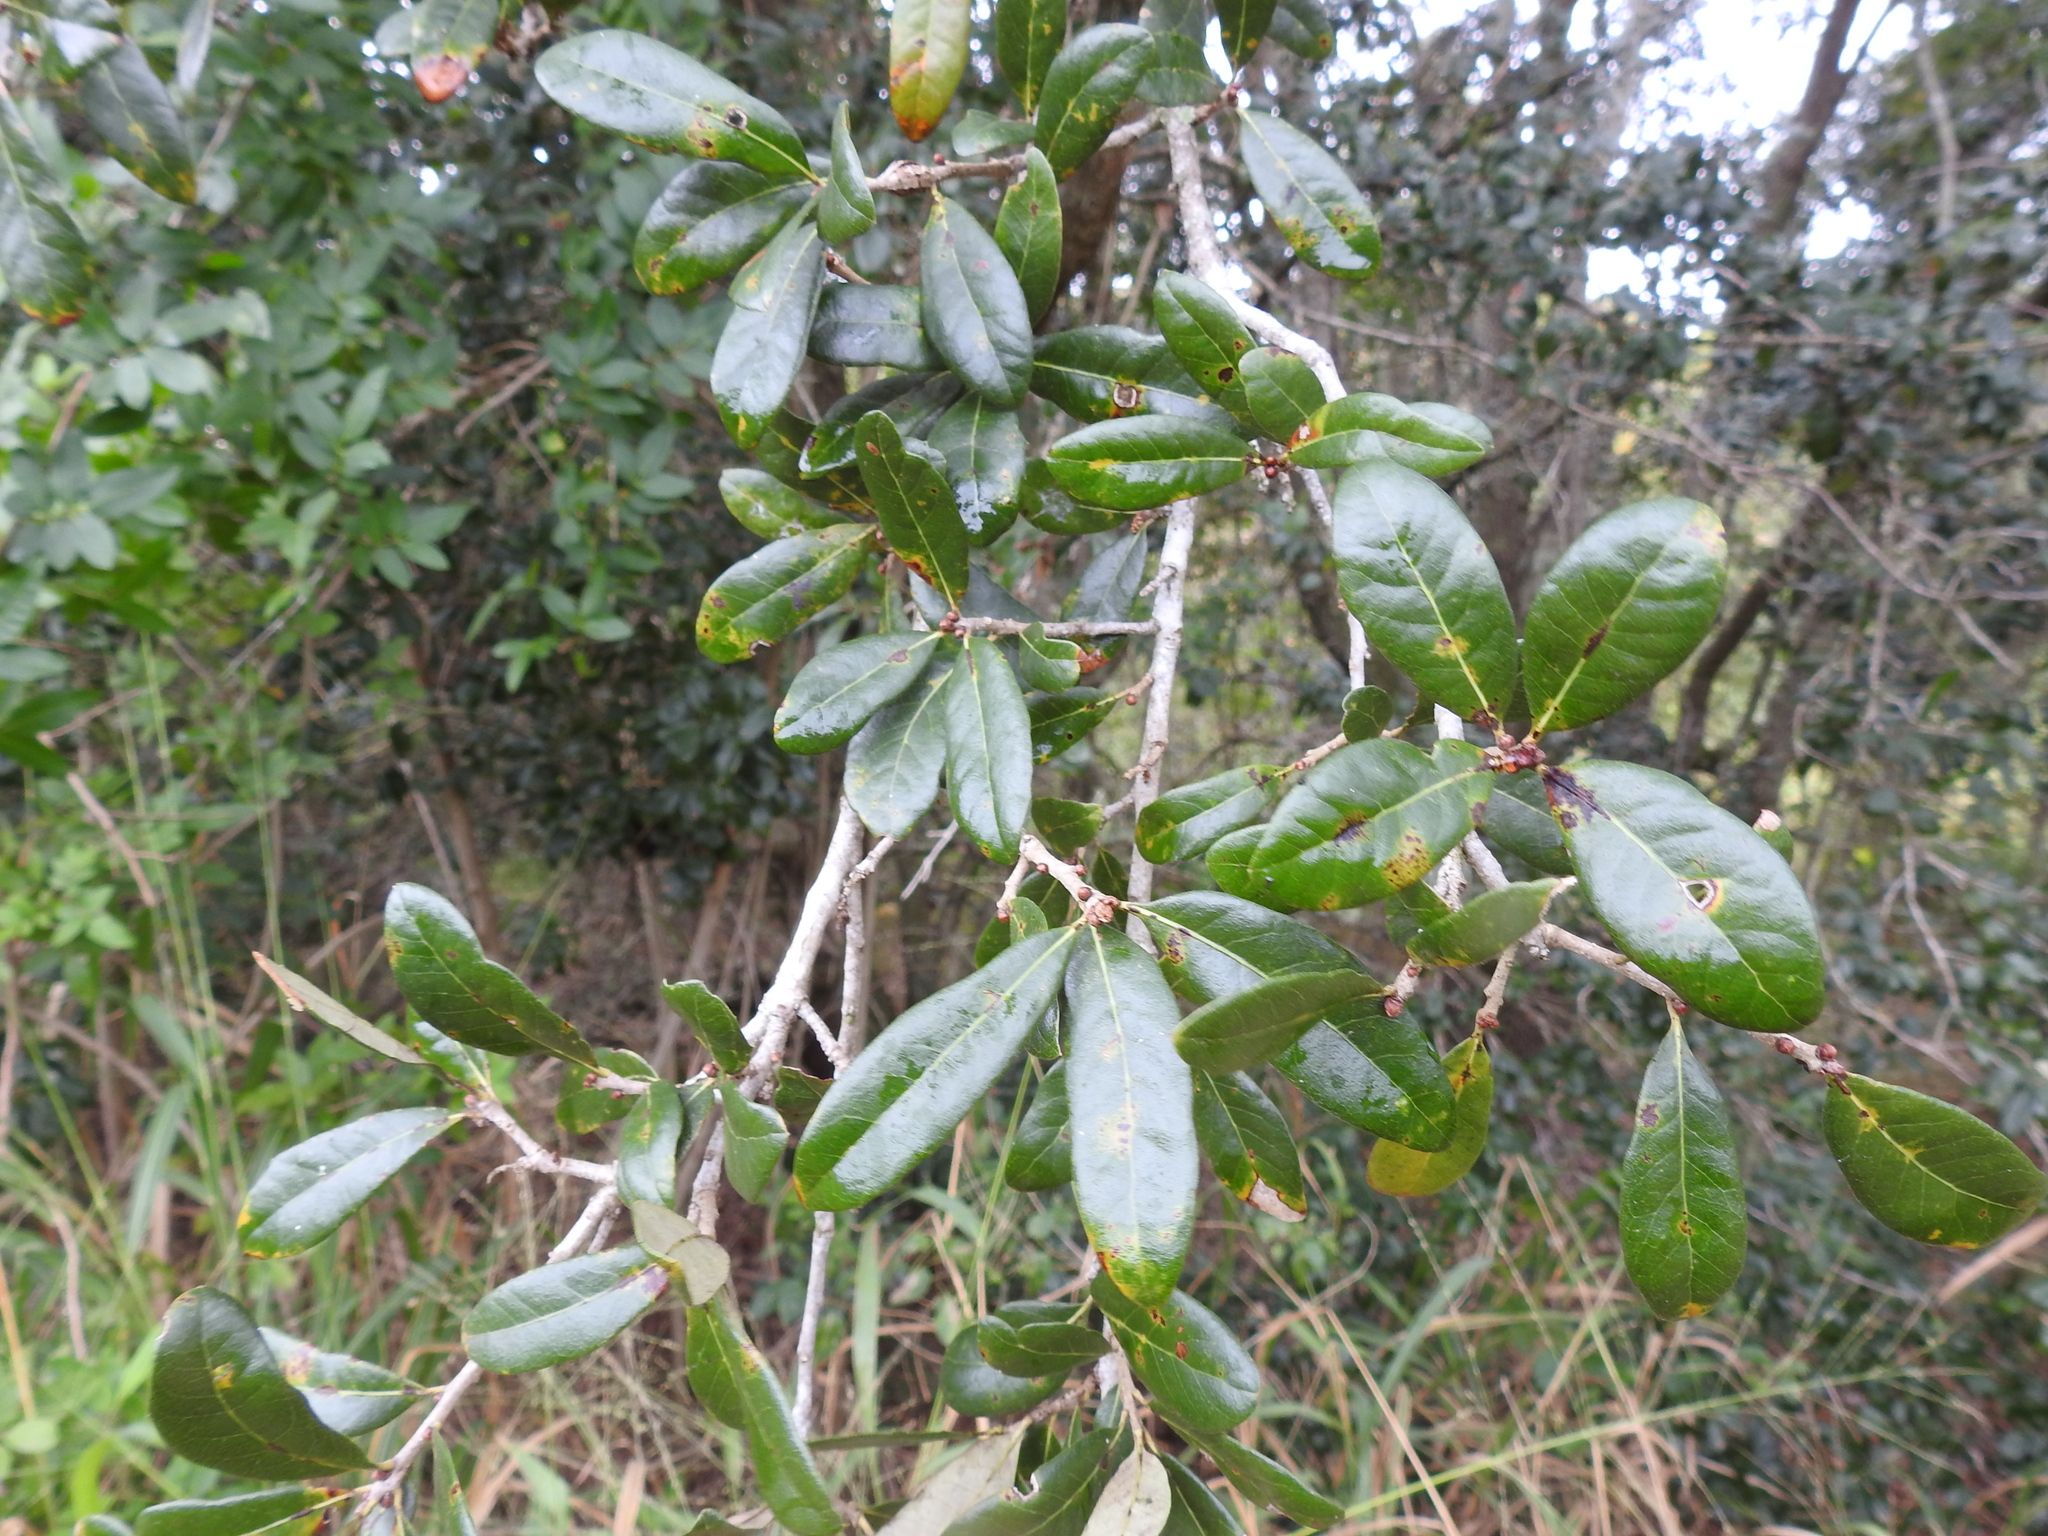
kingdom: Plantae
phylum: Tracheophyta
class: Magnoliopsida
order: Fagales
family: Fagaceae
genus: Quercus
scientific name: Quercus virginiana
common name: Southern live oak
